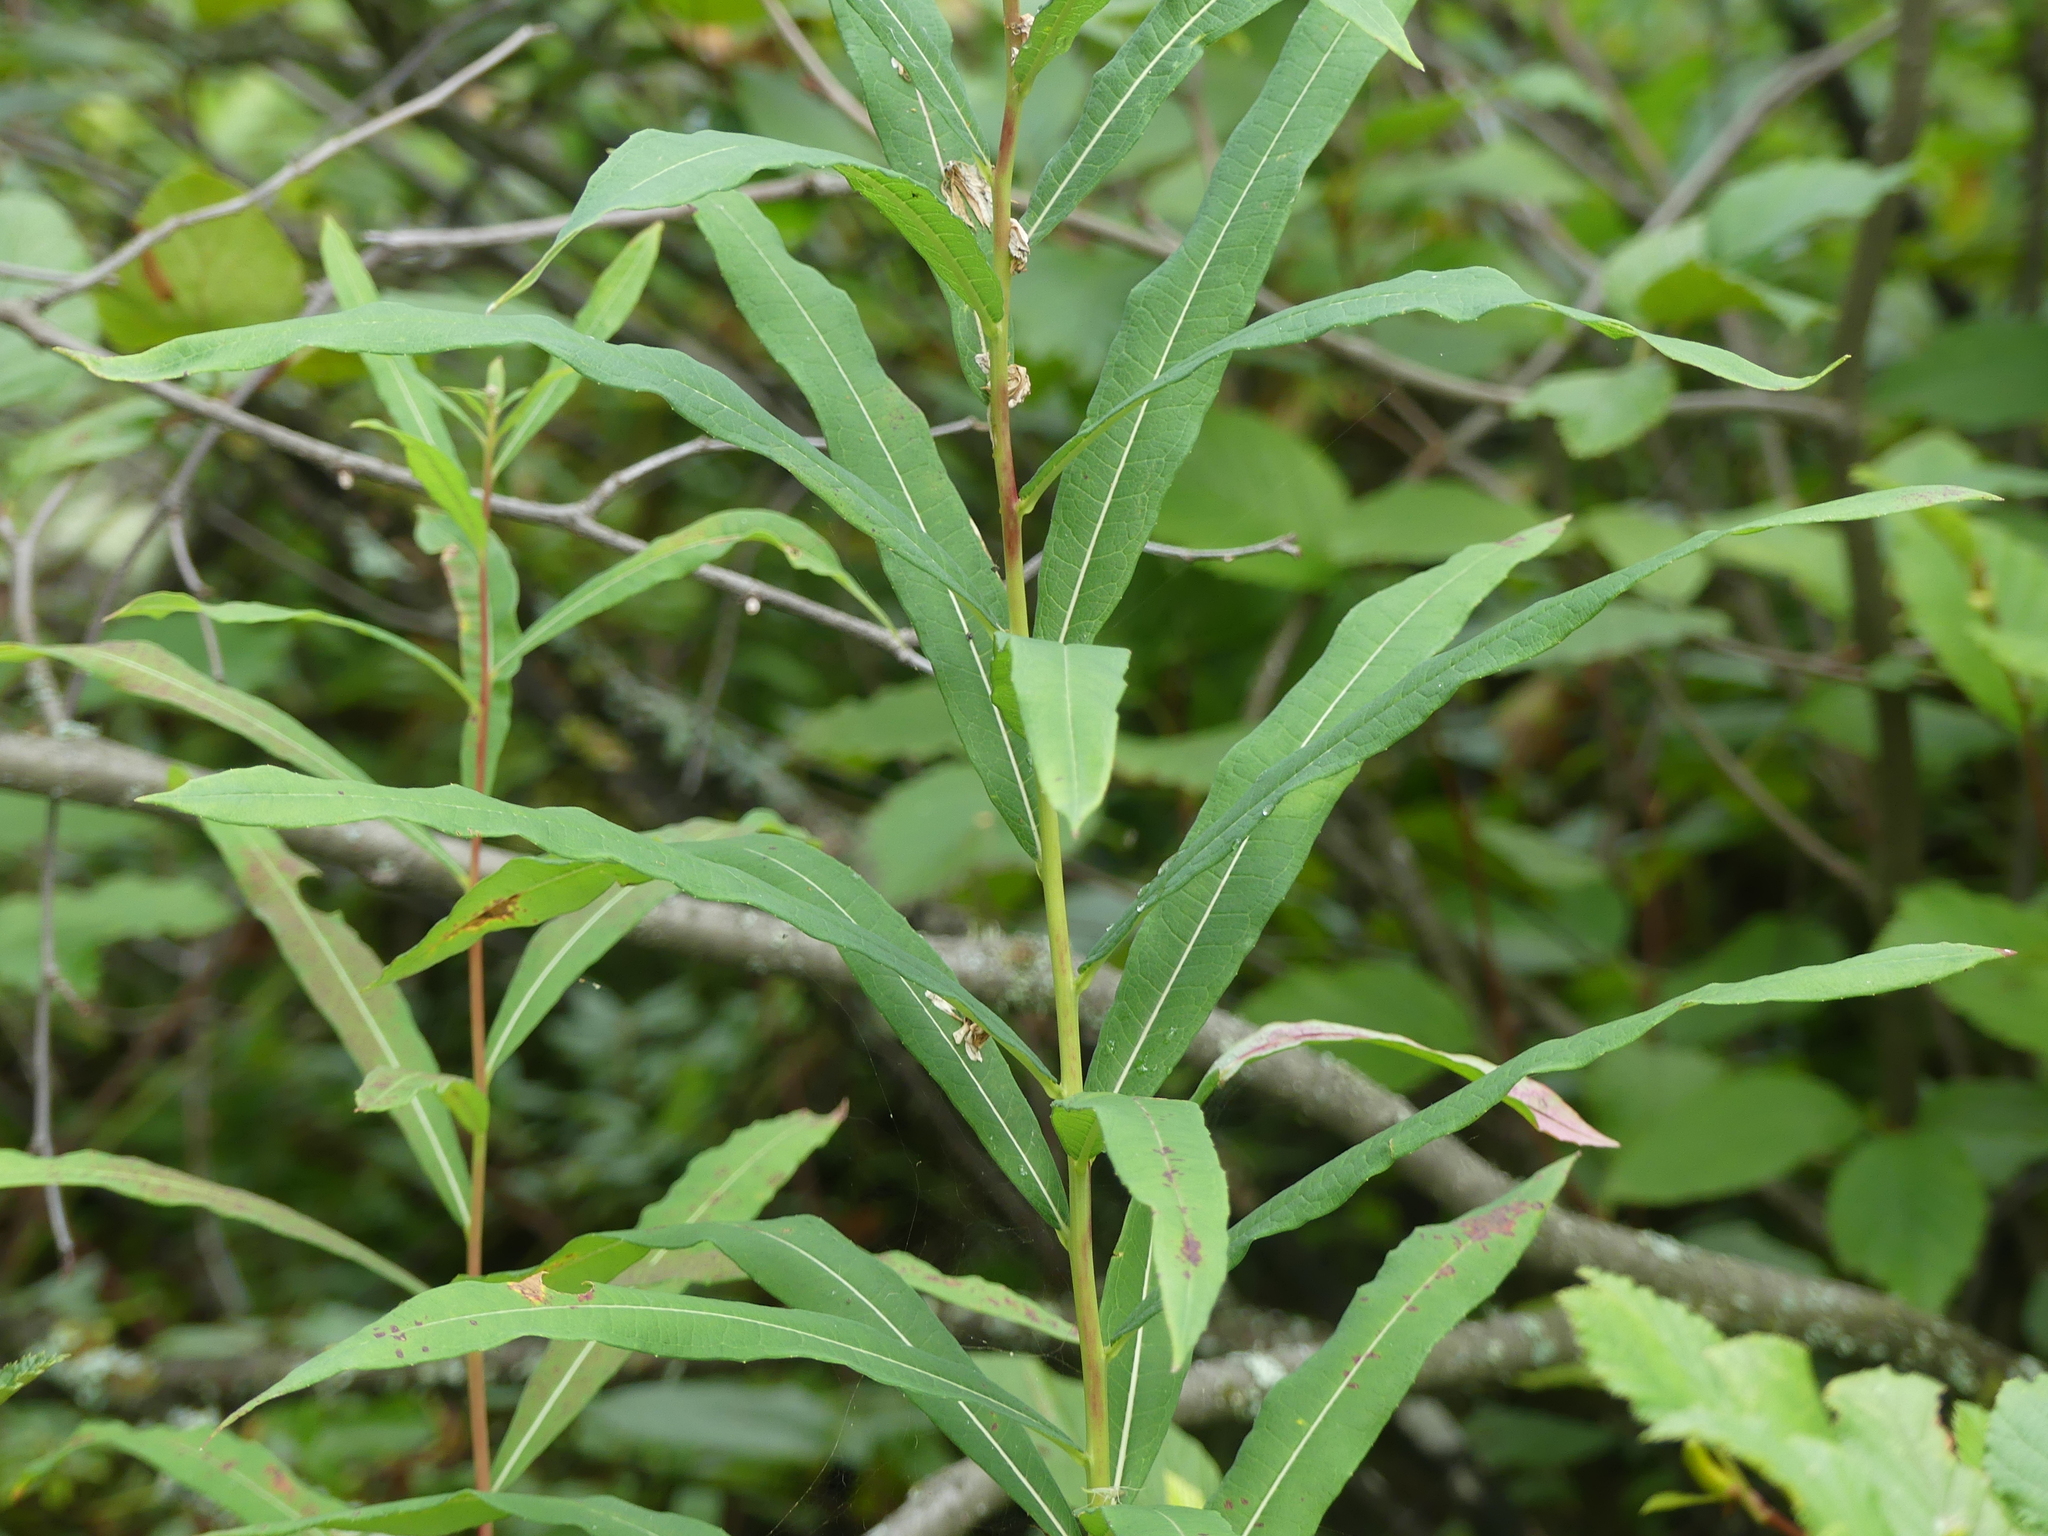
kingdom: Plantae
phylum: Tracheophyta
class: Magnoliopsida
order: Myrtales
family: Onagraceae
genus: Chamaenerion
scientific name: Chamaenerion angustifolium
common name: Fireweed
